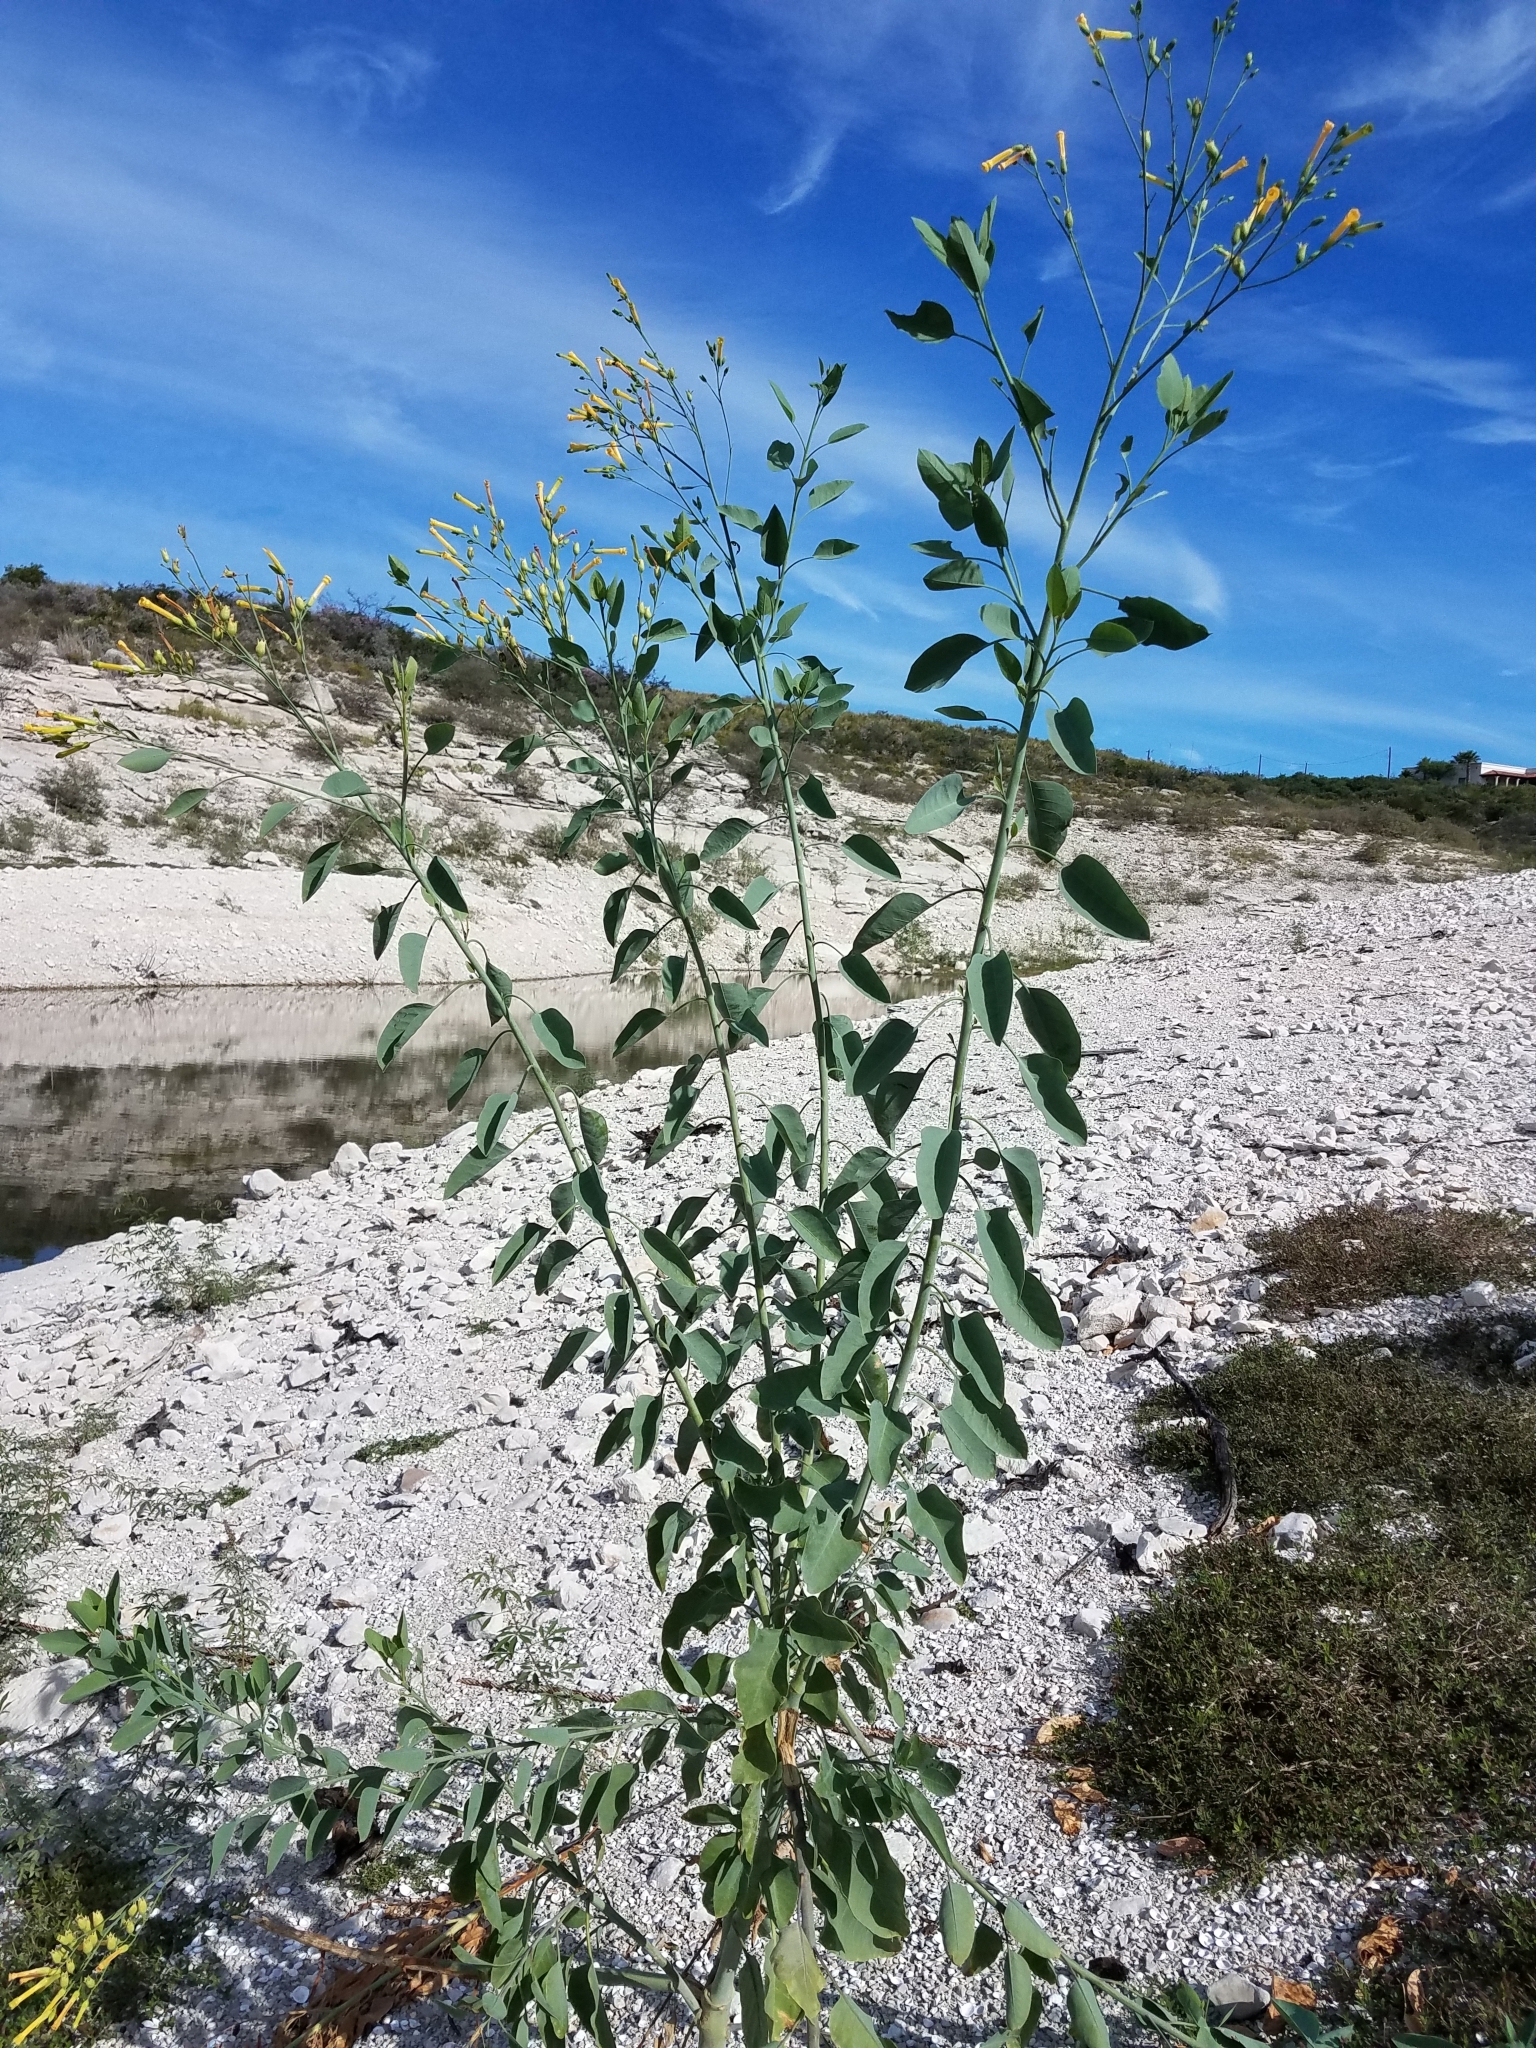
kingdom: Plantae
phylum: Tracheophyta
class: Magnoliopsida
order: Solanales
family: Solanaceae
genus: Nicotiana
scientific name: Nicotiana glauca
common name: Tree tobacco
